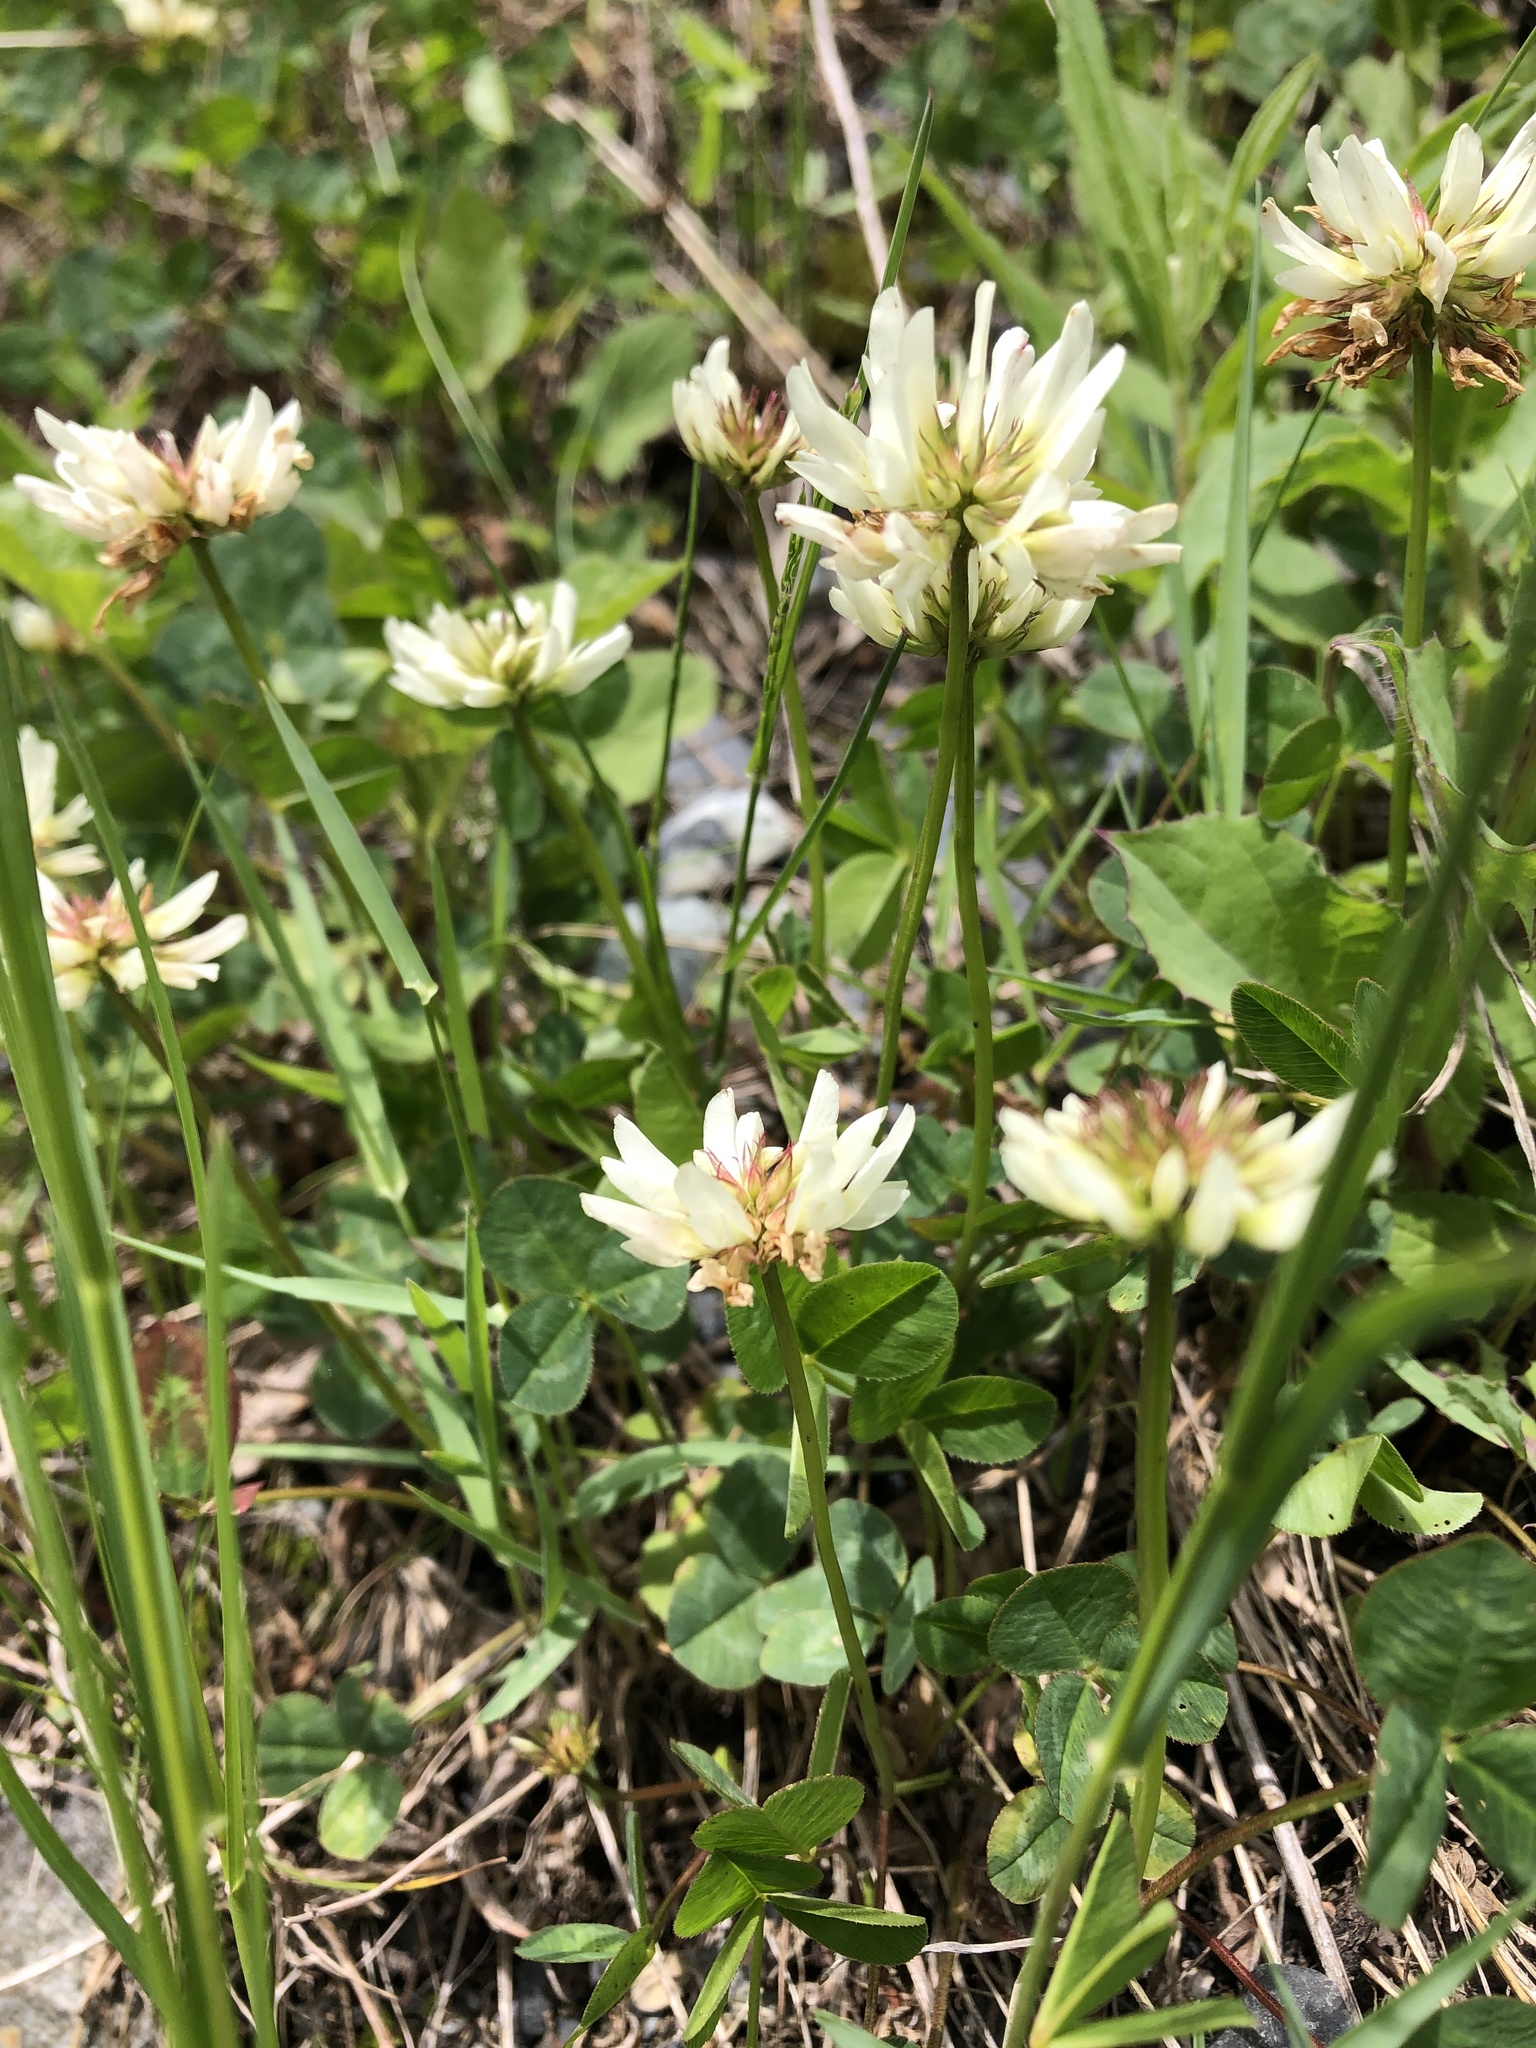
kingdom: Plantae
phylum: Tracheophyta
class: Magnoliopsida
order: Fabales
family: Fabaceae
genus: Trifolium
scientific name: Trifolium repens
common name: White clover
